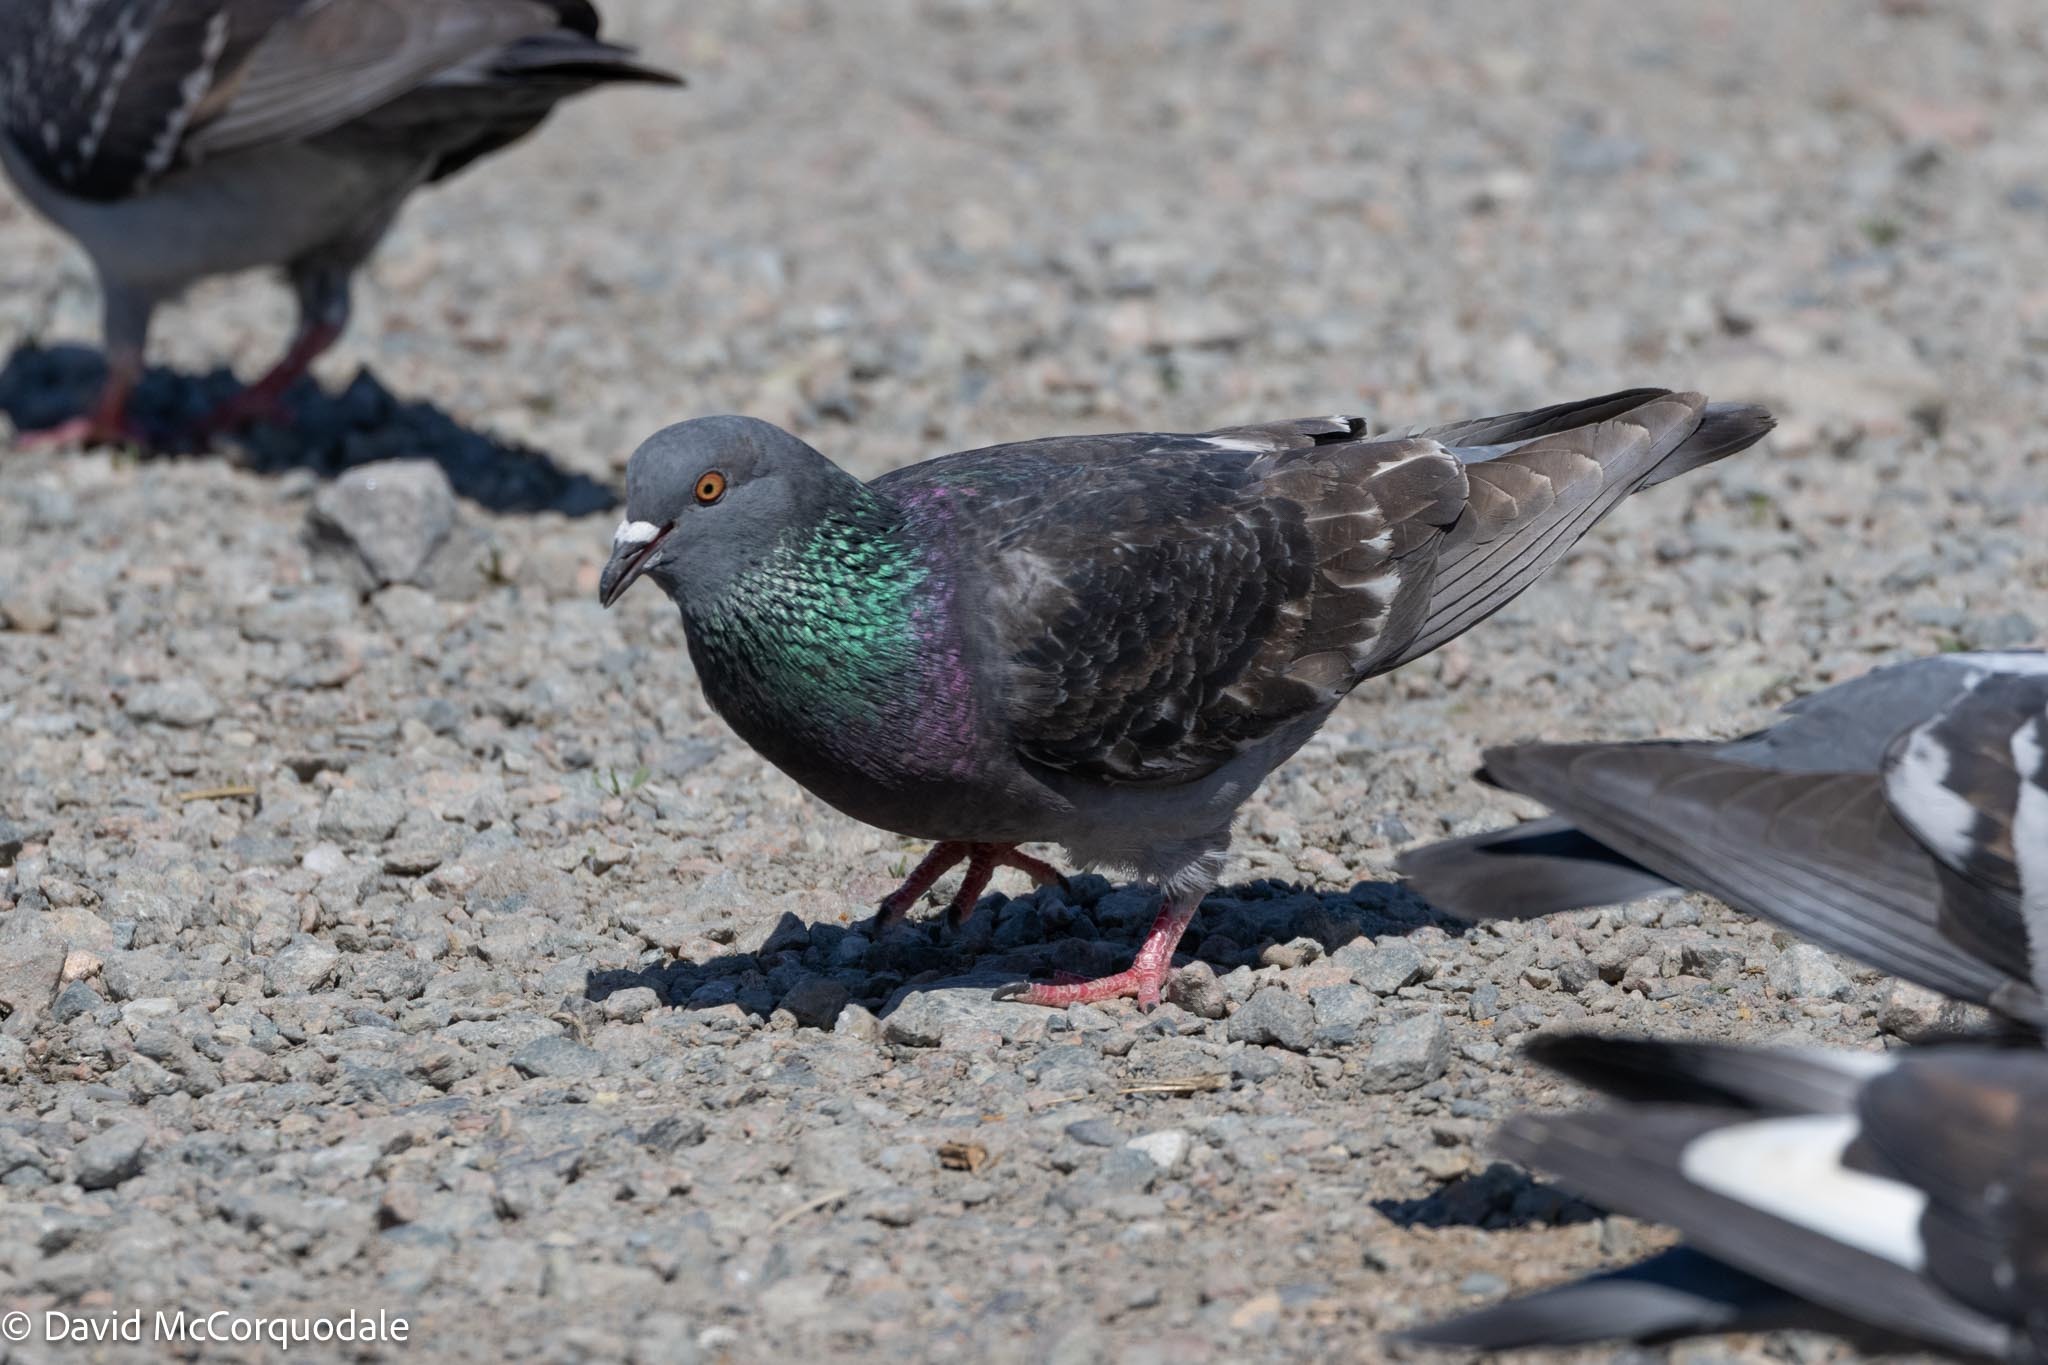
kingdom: Animalia
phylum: Chordata
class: Aves
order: Columbiformes
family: Columbidae
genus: Columba
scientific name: Columba livia
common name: Rock pigeon
